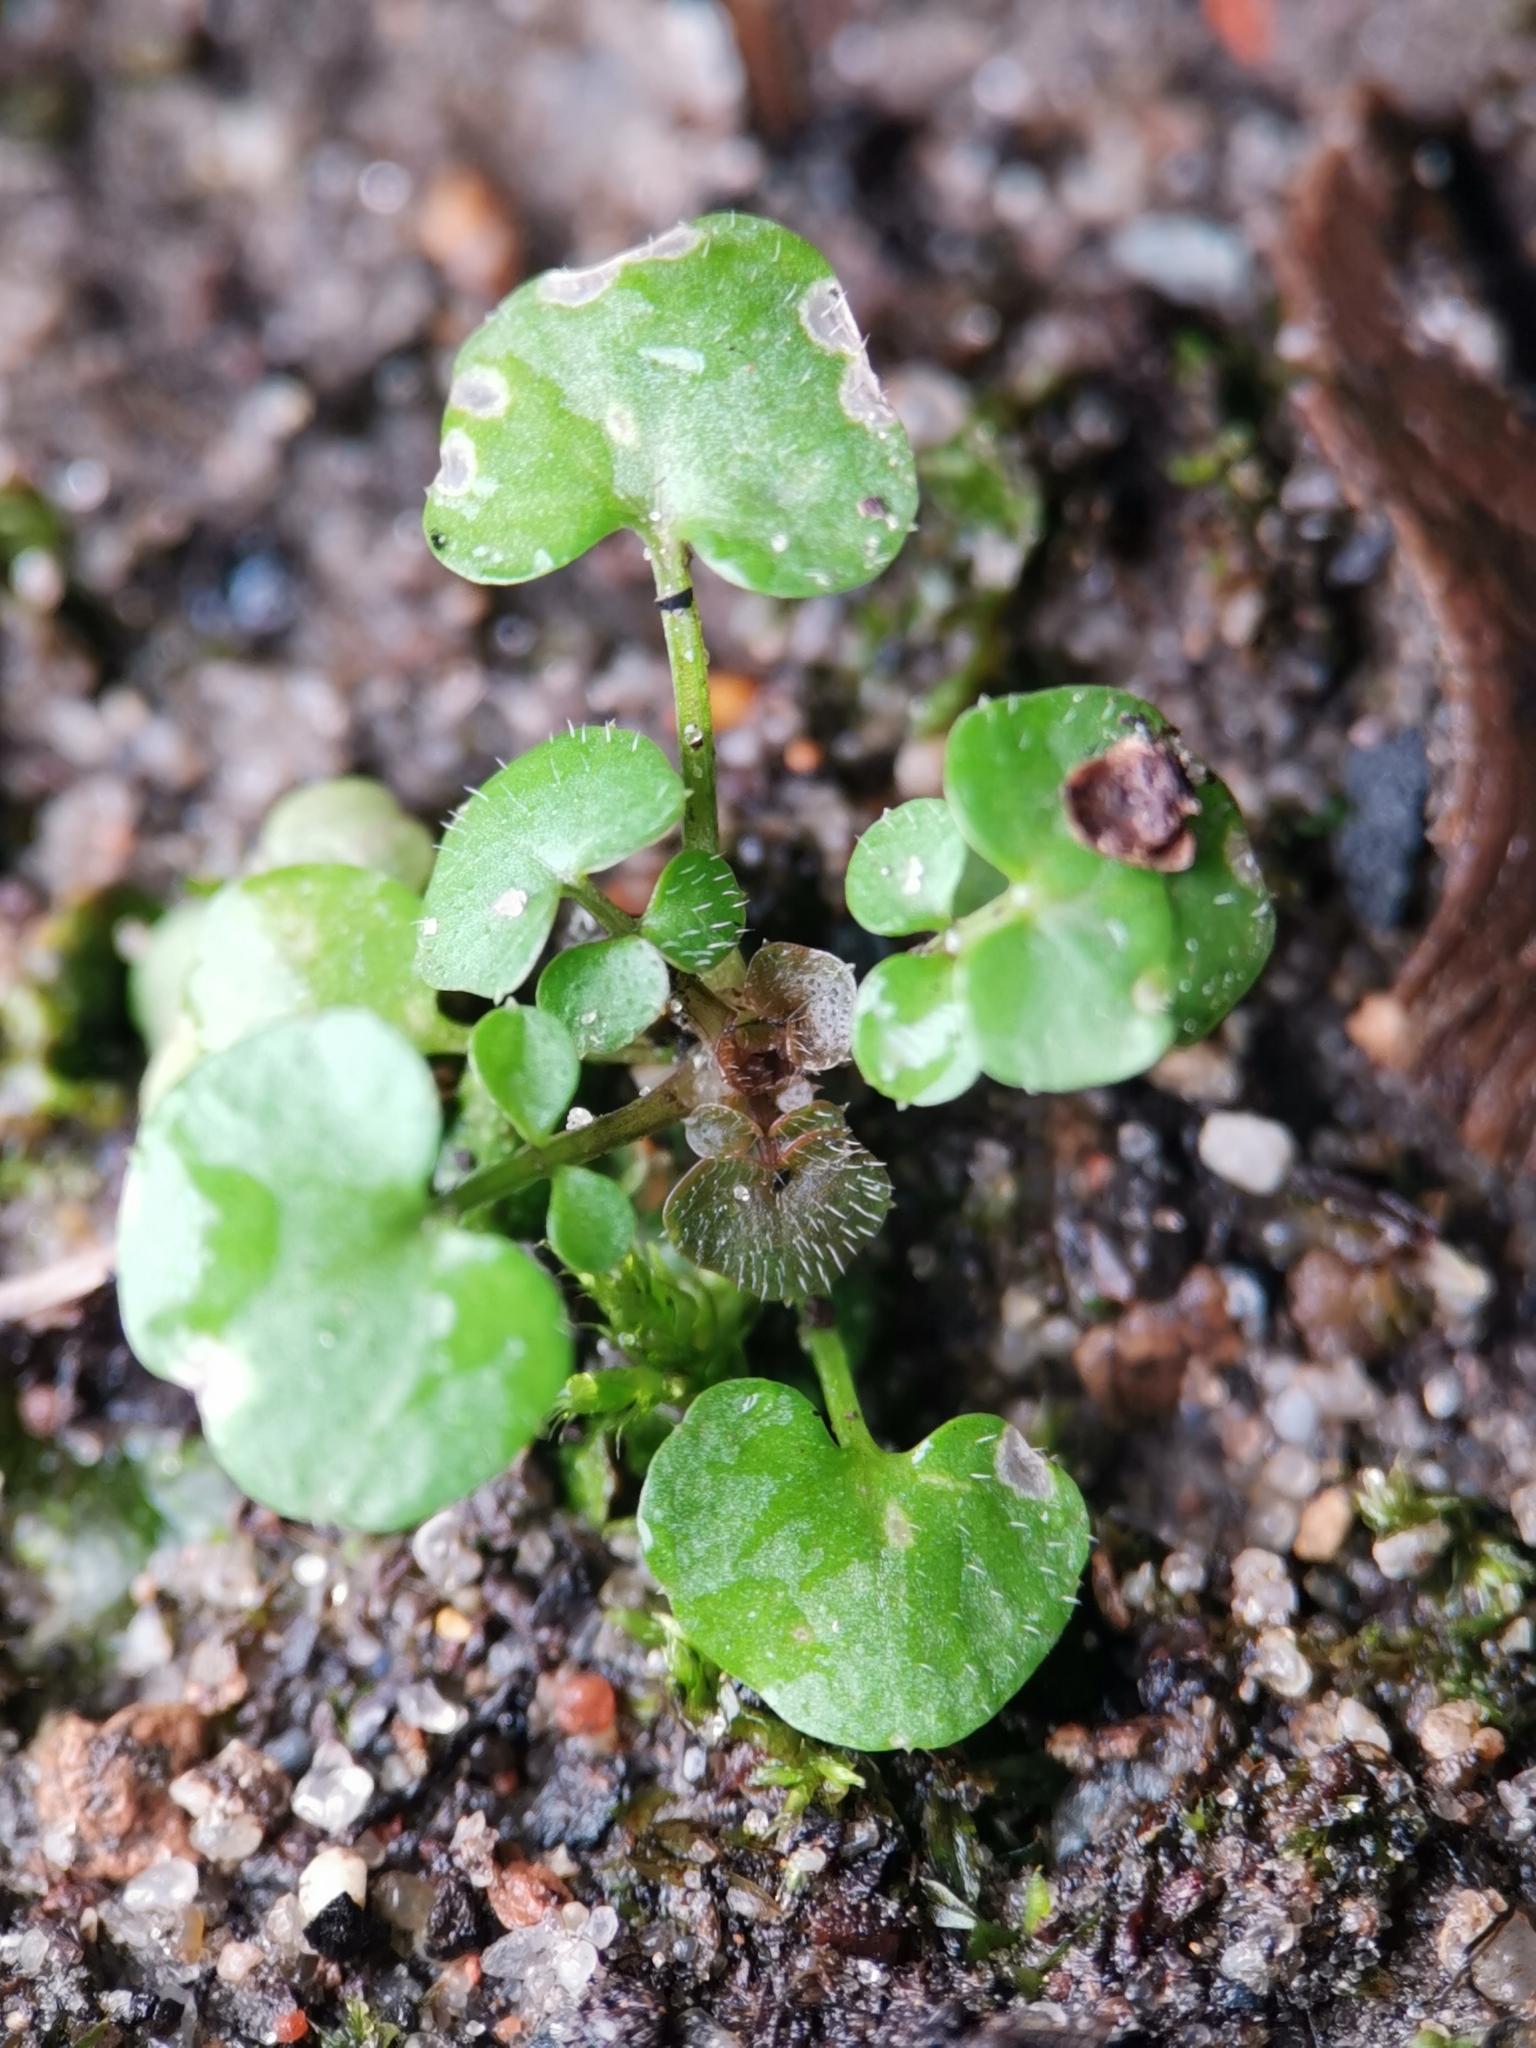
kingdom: Plantae
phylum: Tracheophyta
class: Magnoliopsida
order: Brassicales
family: Brassicaceae
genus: Cardamine
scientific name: Cardamine hirsuta
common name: Hairy bittercress
